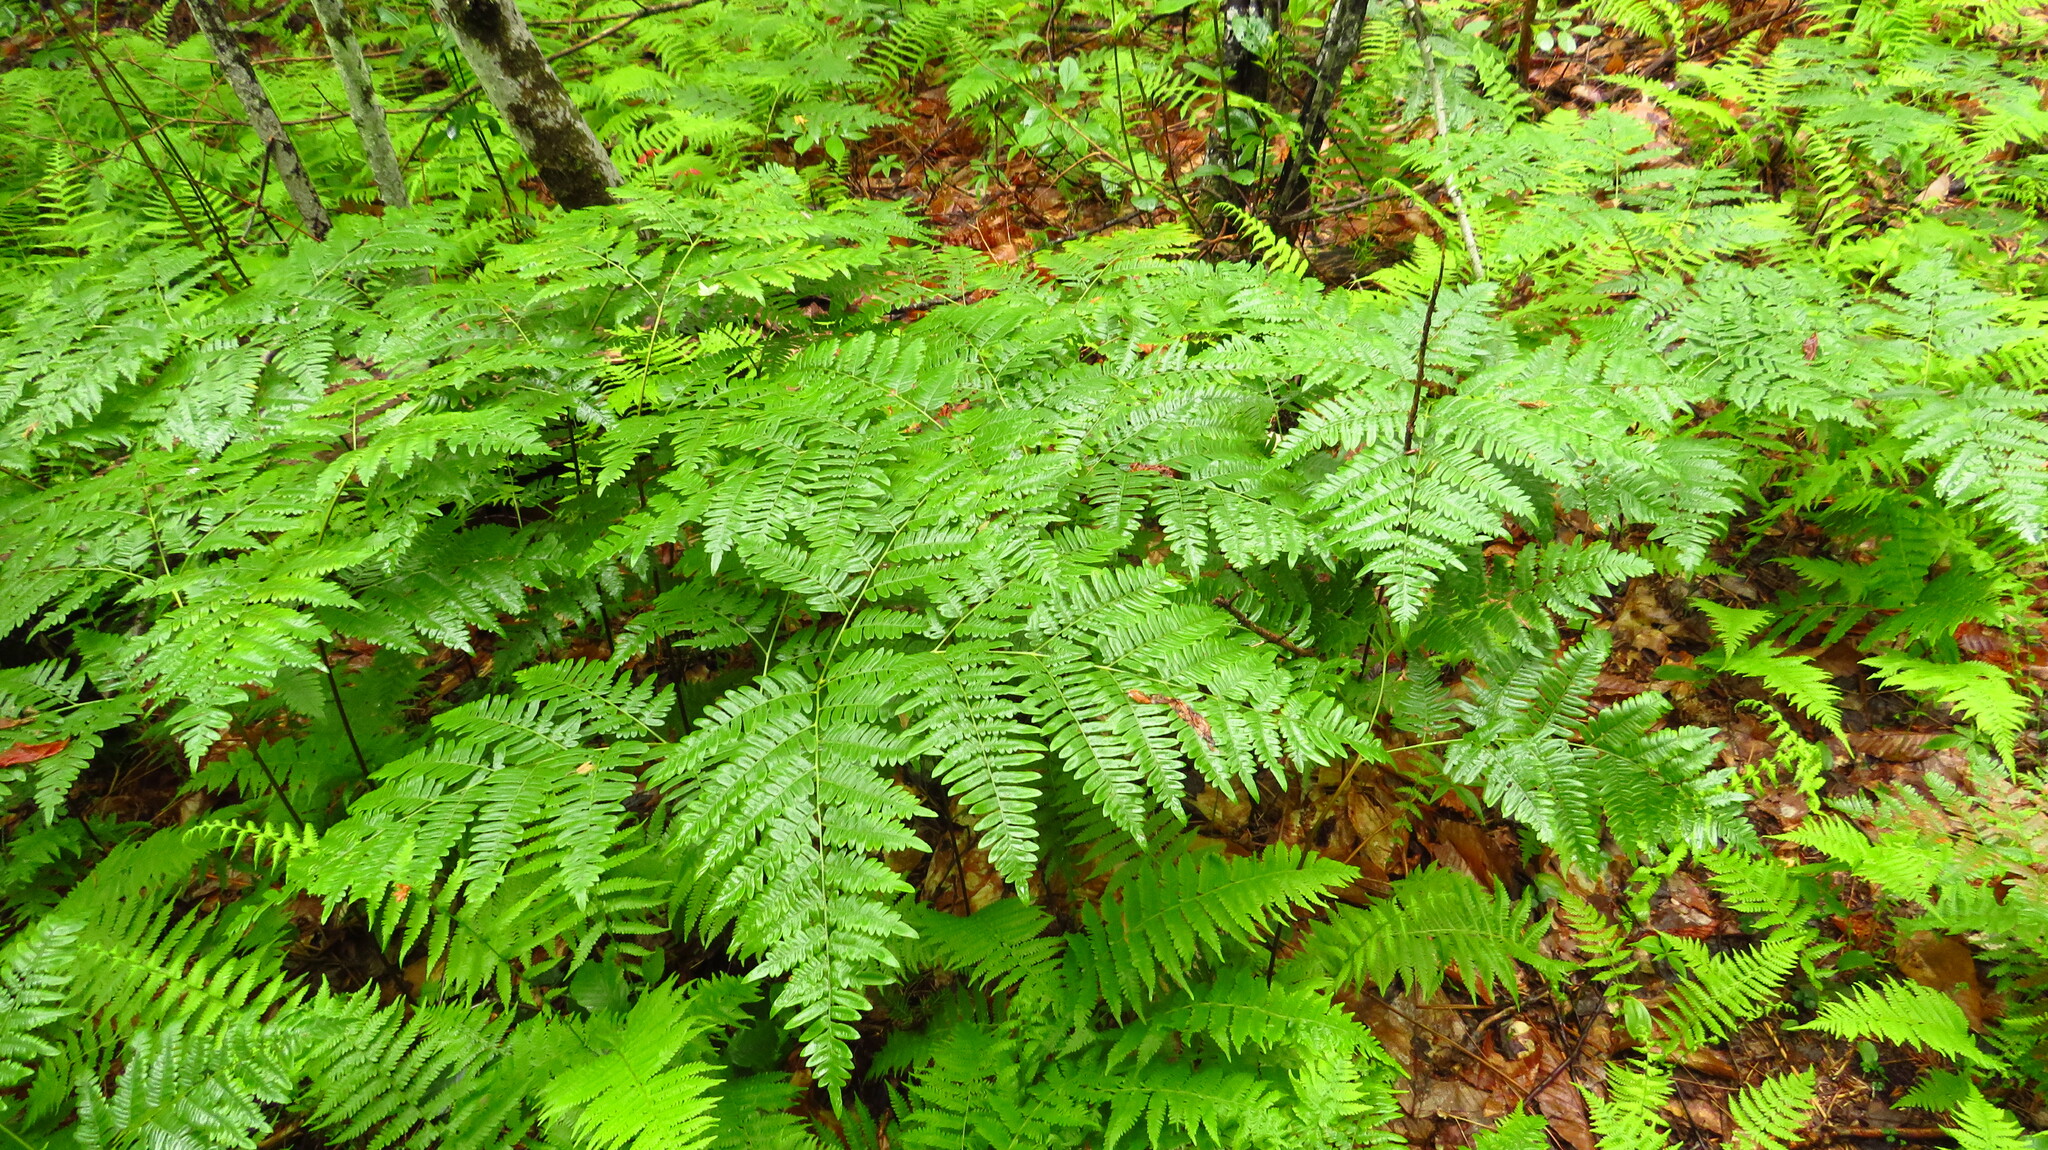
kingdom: Plantae
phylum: Tracheophyta
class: Polypodiopsida
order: Polypodiales
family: Dennstaedtiaceae
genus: Pteridium
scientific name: Pteridium aquilinum
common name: Bracken
